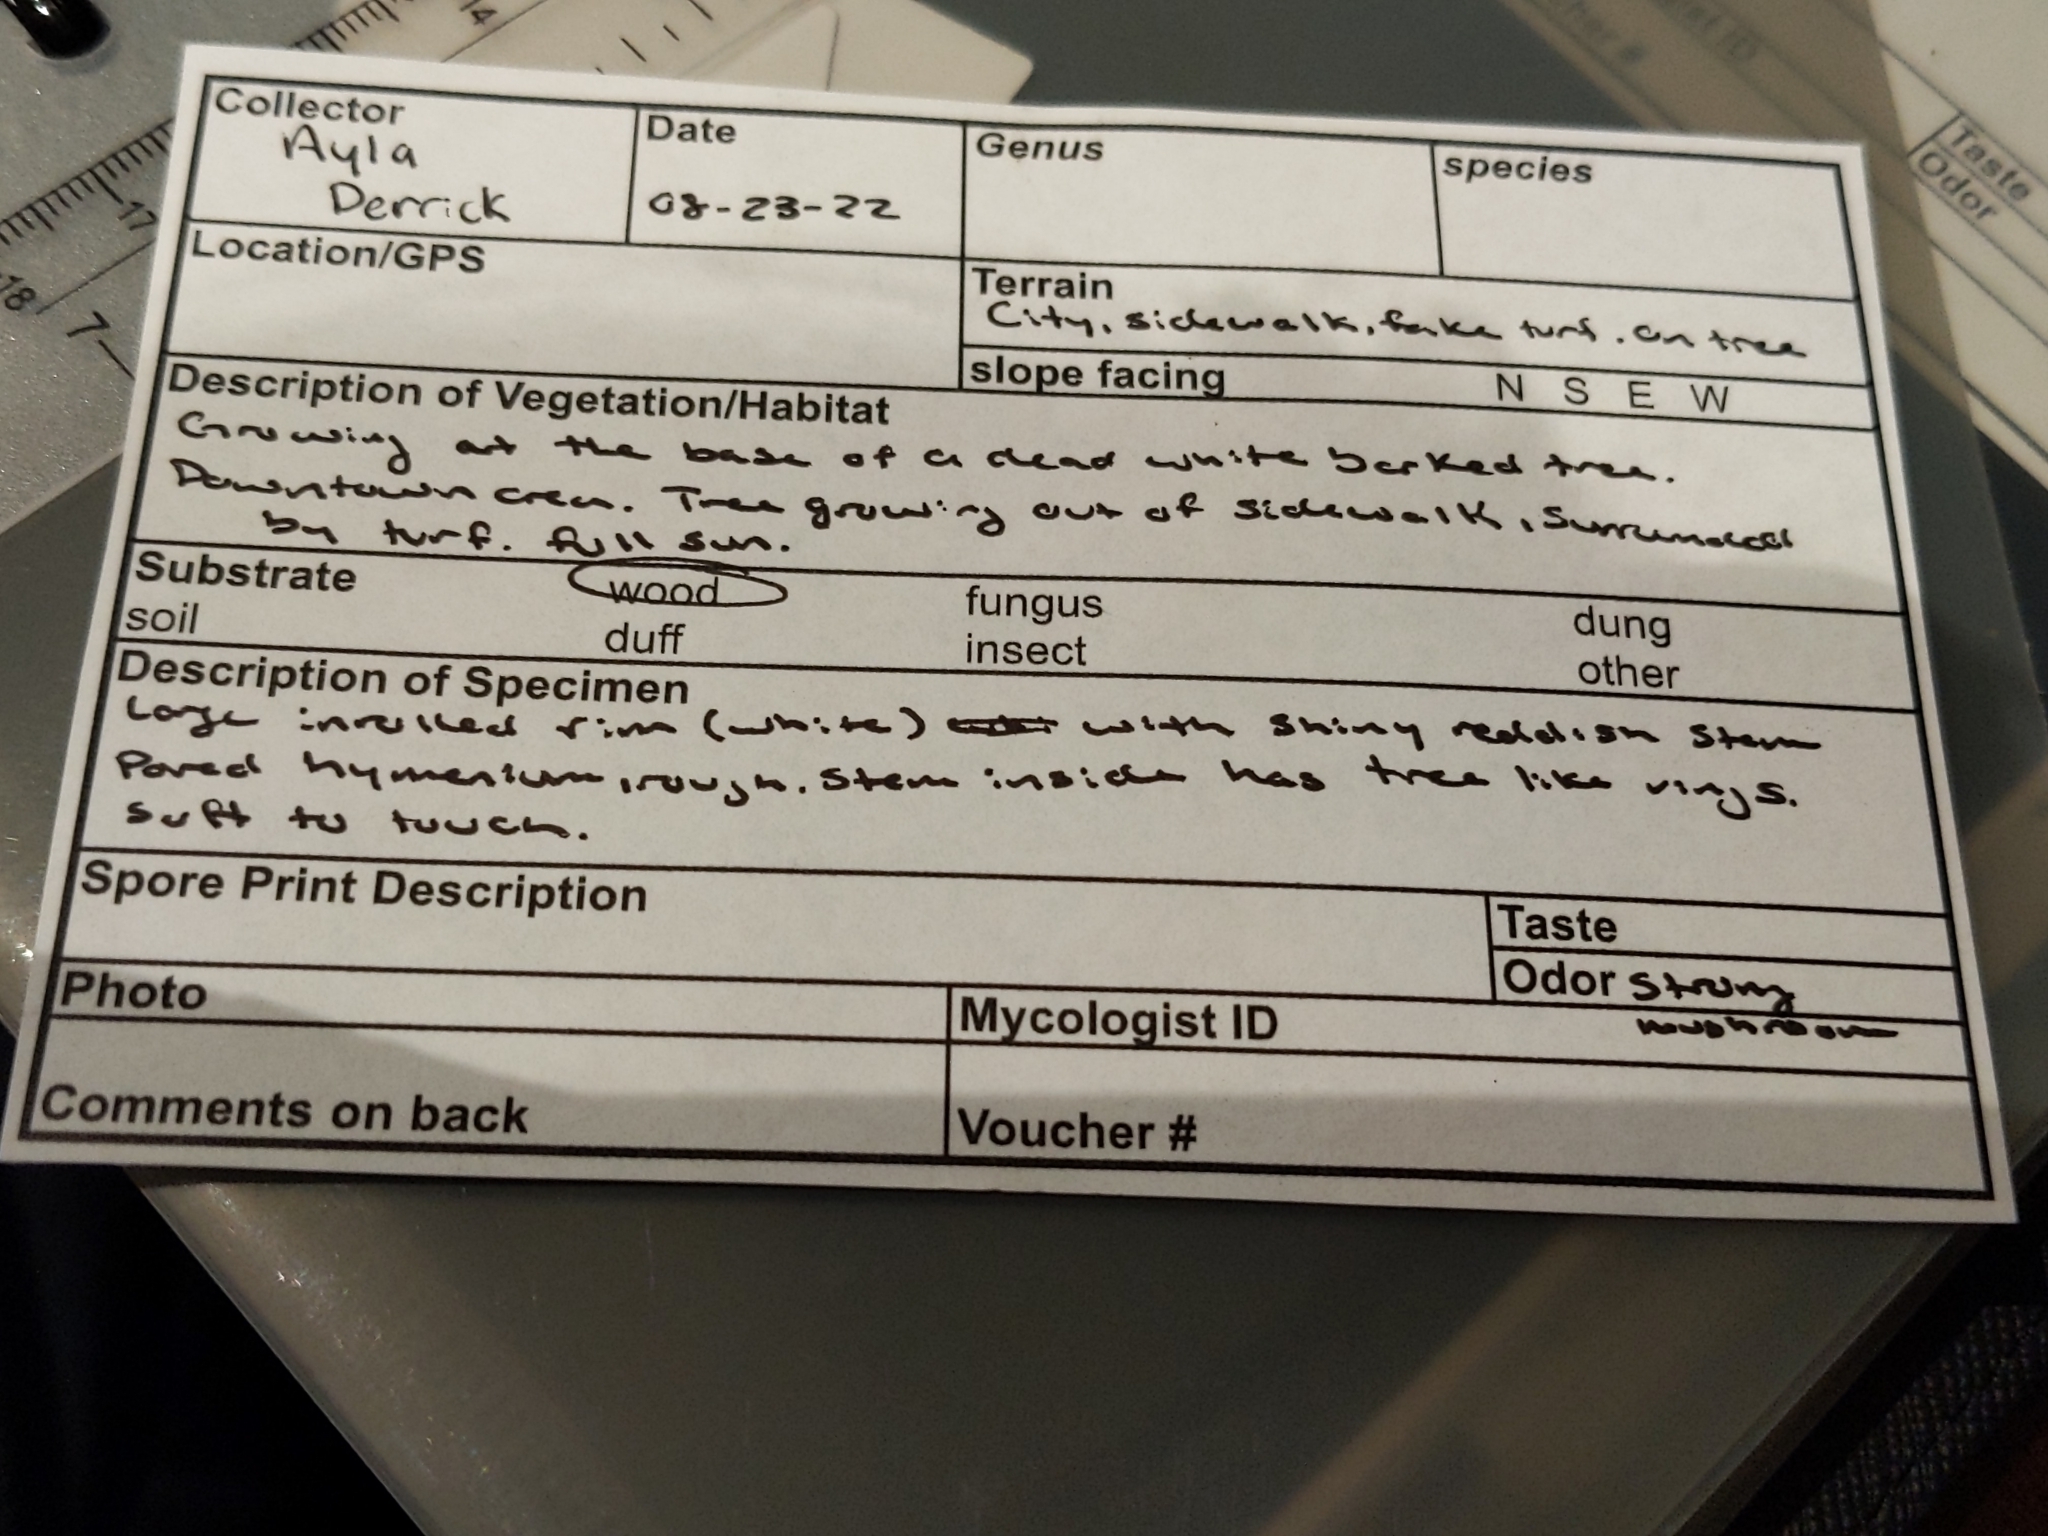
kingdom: Fungi
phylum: Basidiomycota
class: Agaricomycetes
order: Polyporales
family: Polyporaceae
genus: Ganoderma
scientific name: Ganoderma polychromum
